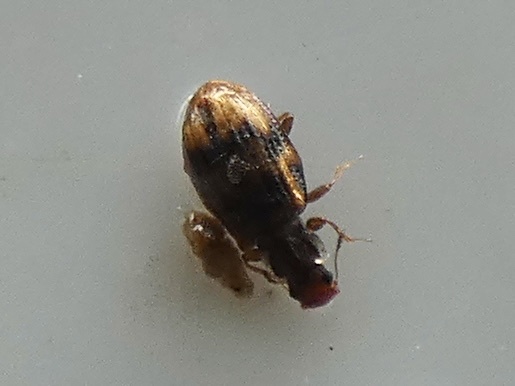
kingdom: Animalia
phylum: Arthropoda
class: Insecta
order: Coleoptera
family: Latridiidae
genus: Cartodere
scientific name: Cartodere bifasciata
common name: Plaster beetle
